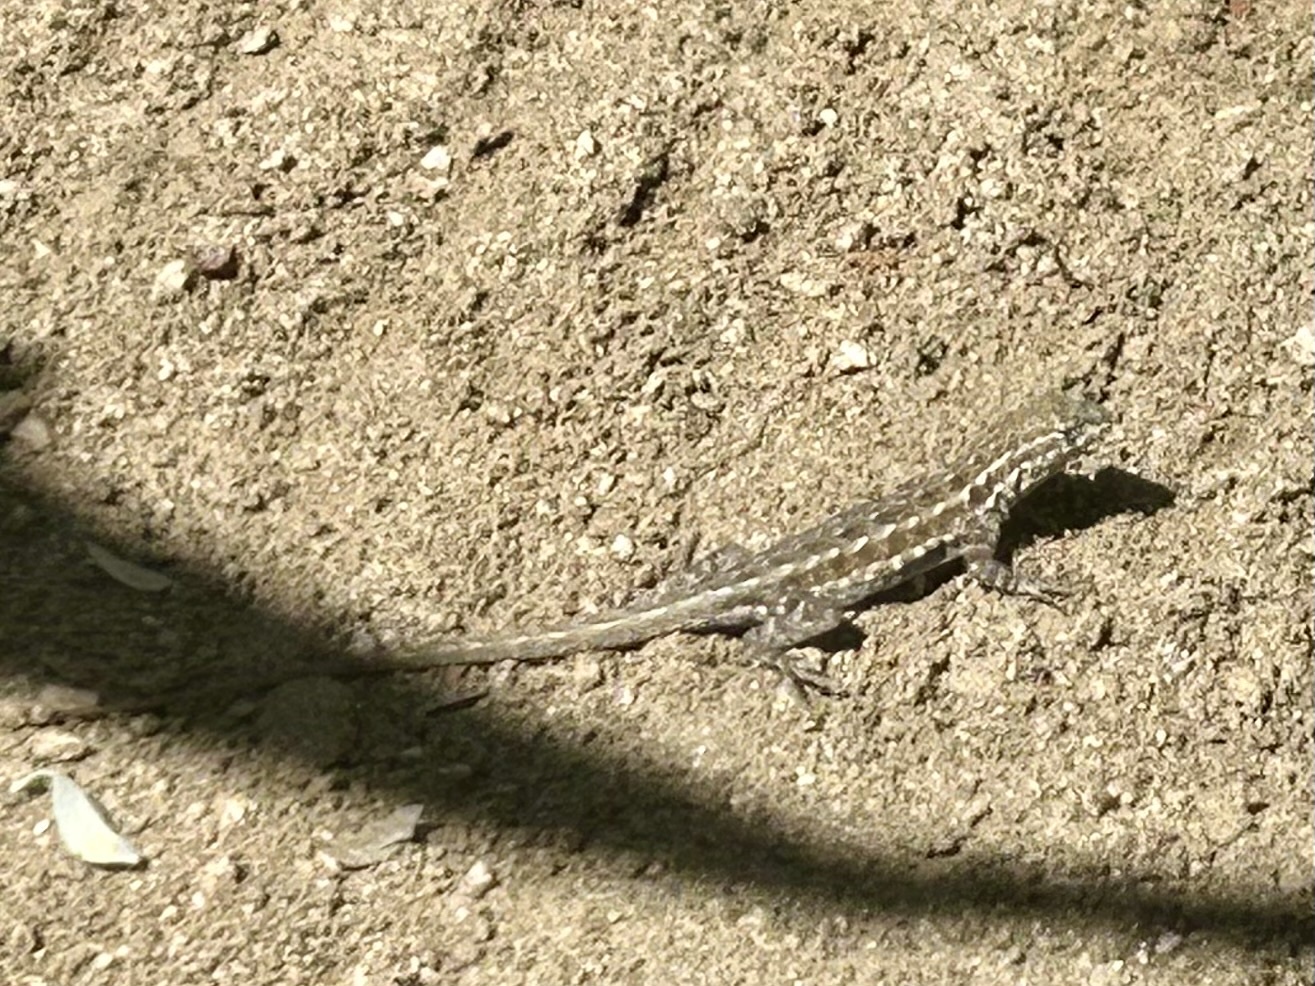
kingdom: Animalia
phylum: Chordata
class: Squamata
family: Phrynosomatidae
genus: Uta
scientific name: Uta stansburiana
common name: Side-blotched lizard
